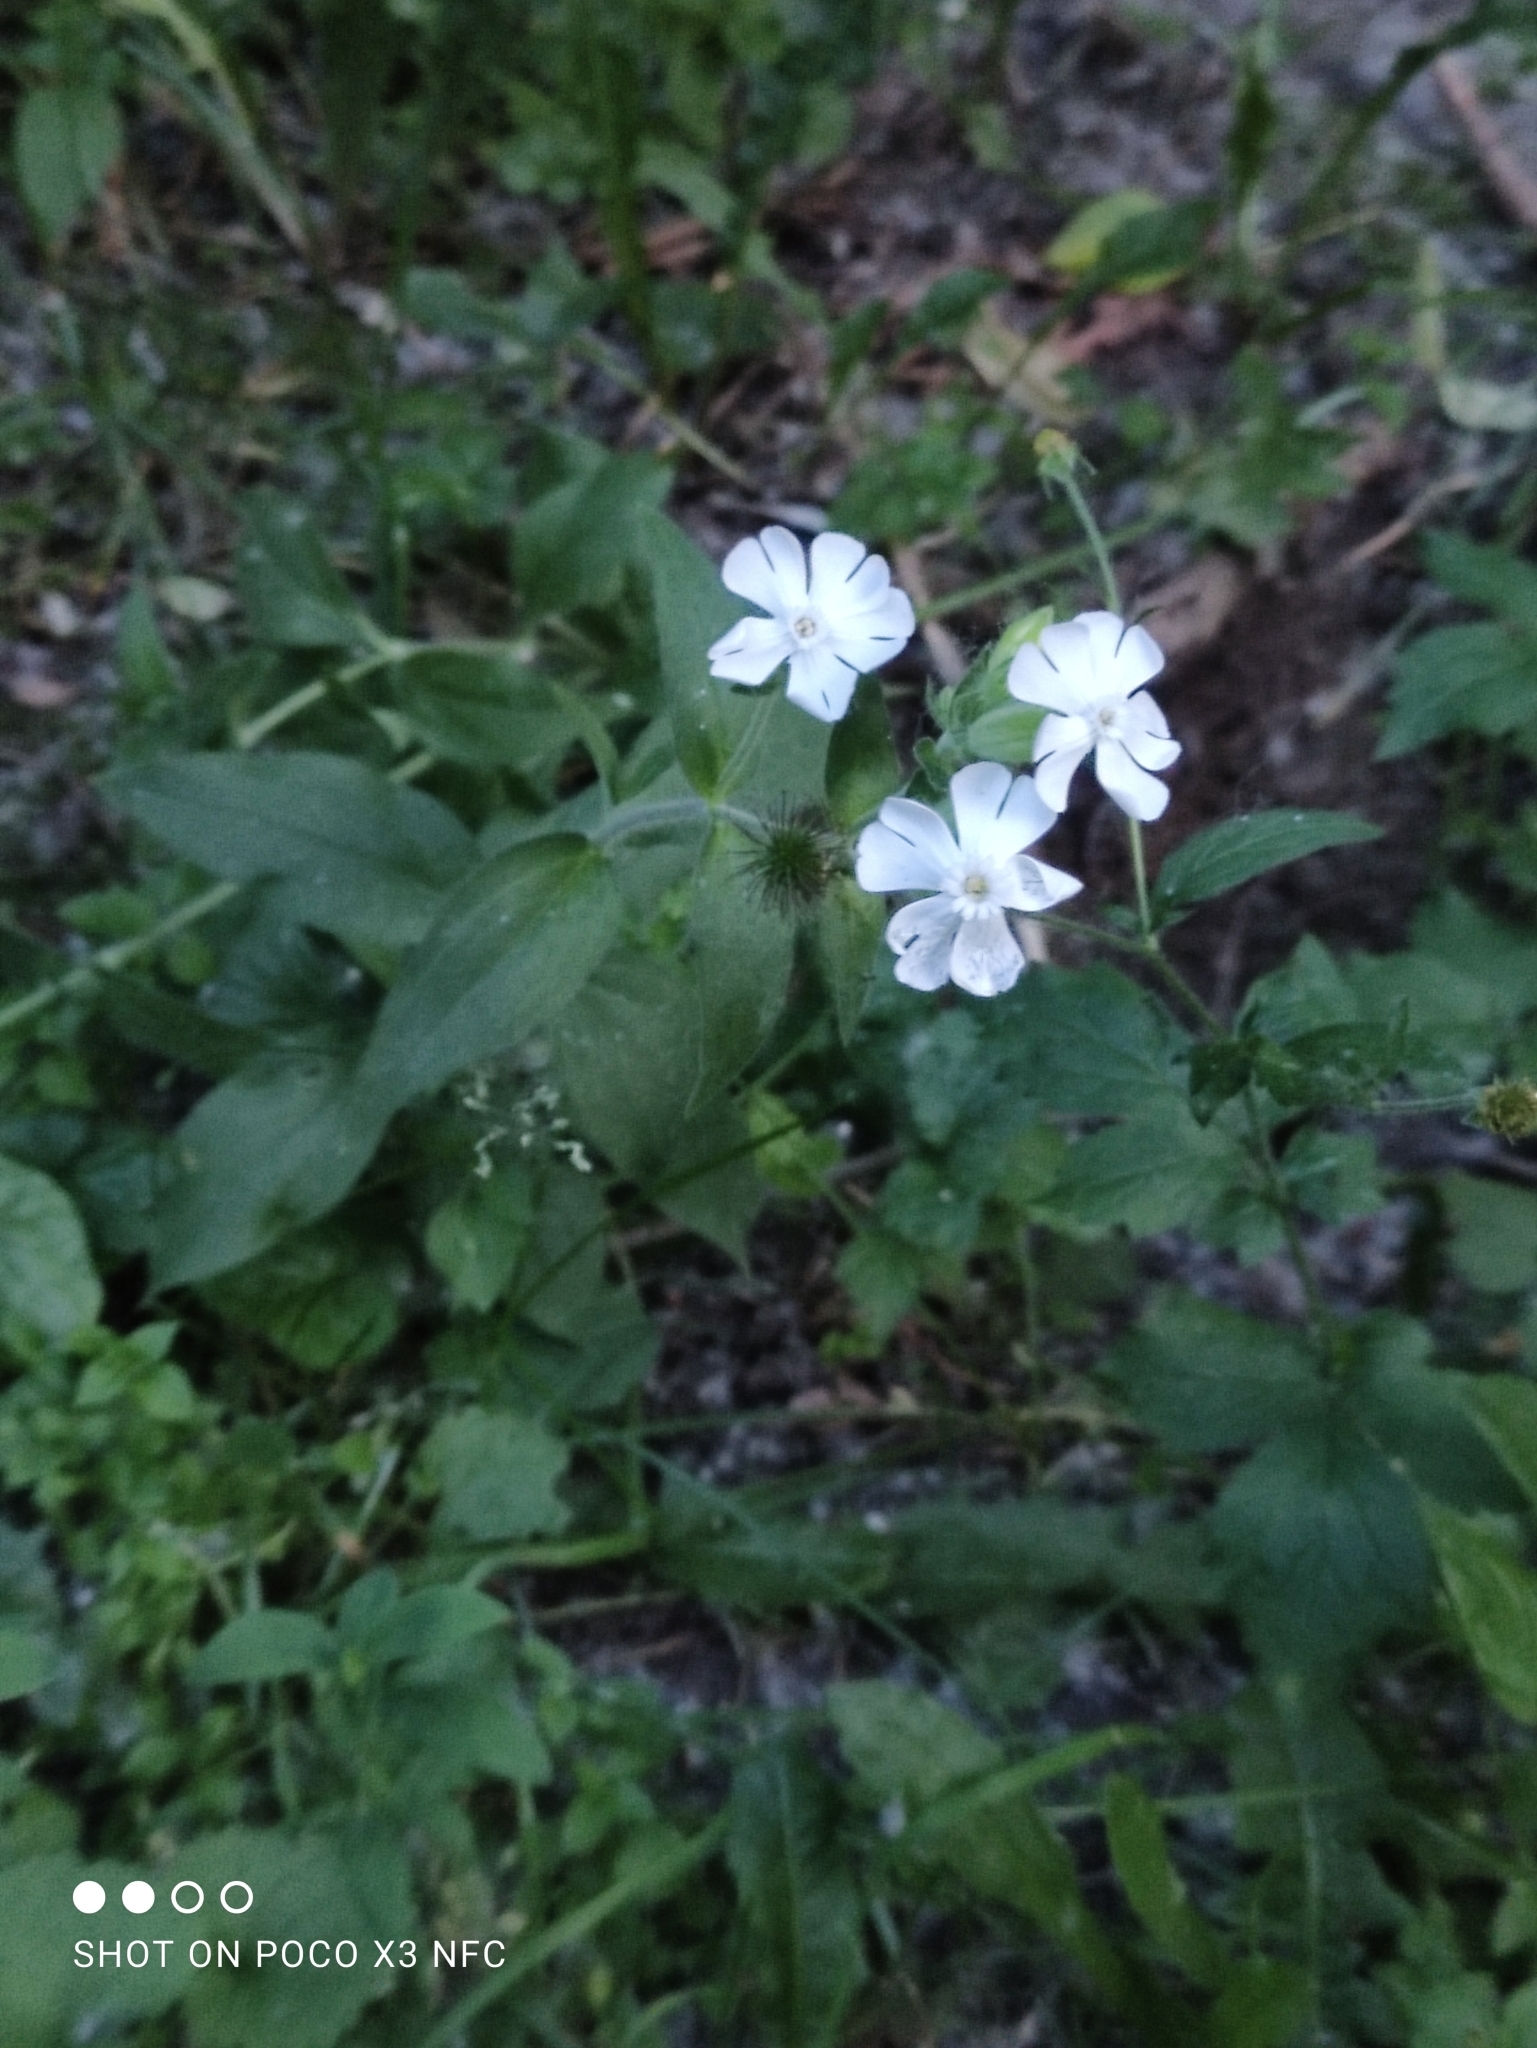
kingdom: Plantae
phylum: Tracheophyta
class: Magnoliopsida
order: Caryophyllales
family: Caryophyllaceae
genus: Silene
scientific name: Silene latifolia
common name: White campion
